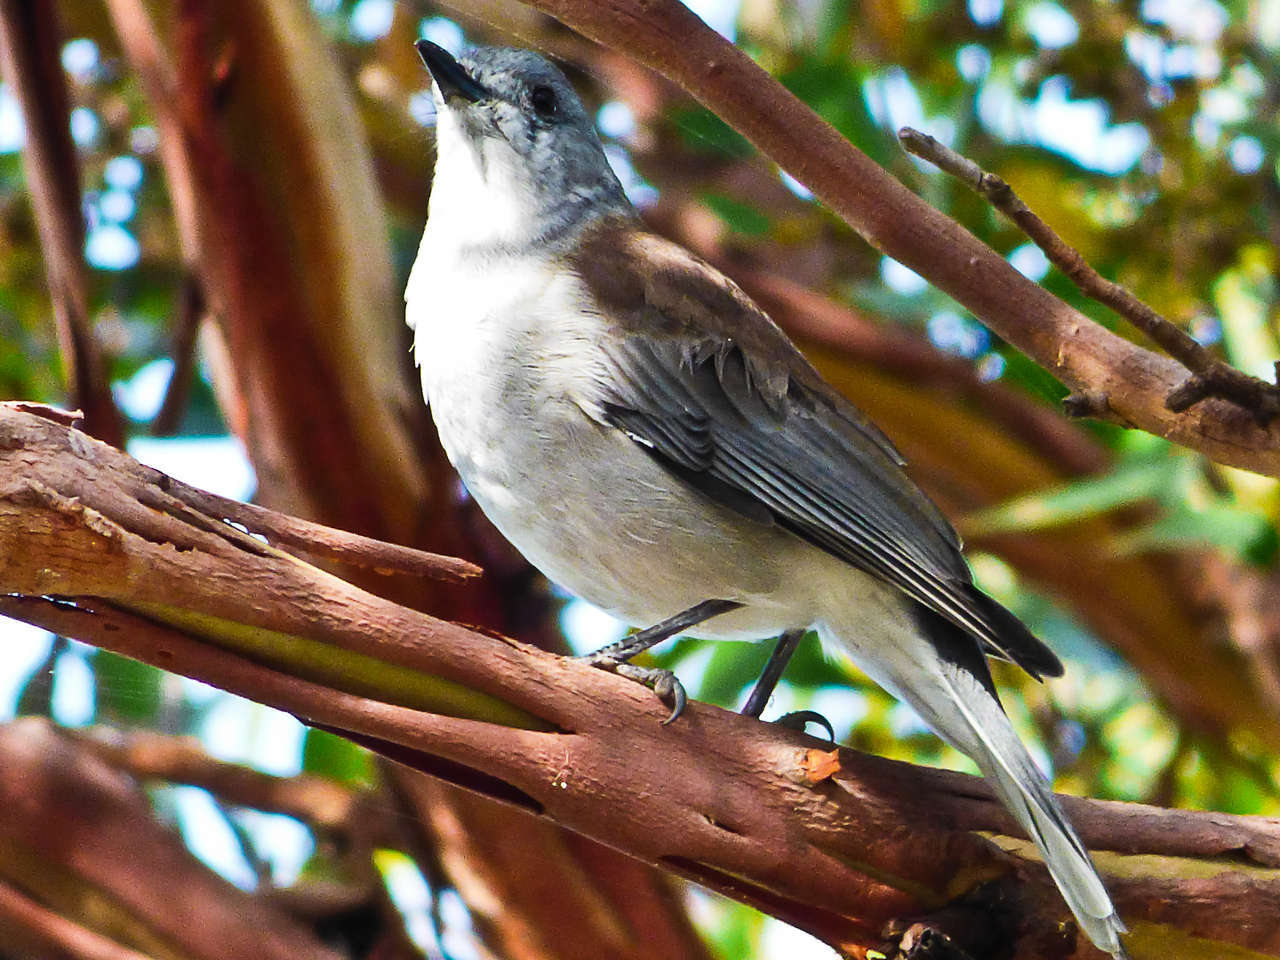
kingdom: Animalia
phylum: Chordata
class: Aves
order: Passeriformes
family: Pachycephalidae
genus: Colluricincla
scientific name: Colluricincla harmonica
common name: Grey shrikethrush
